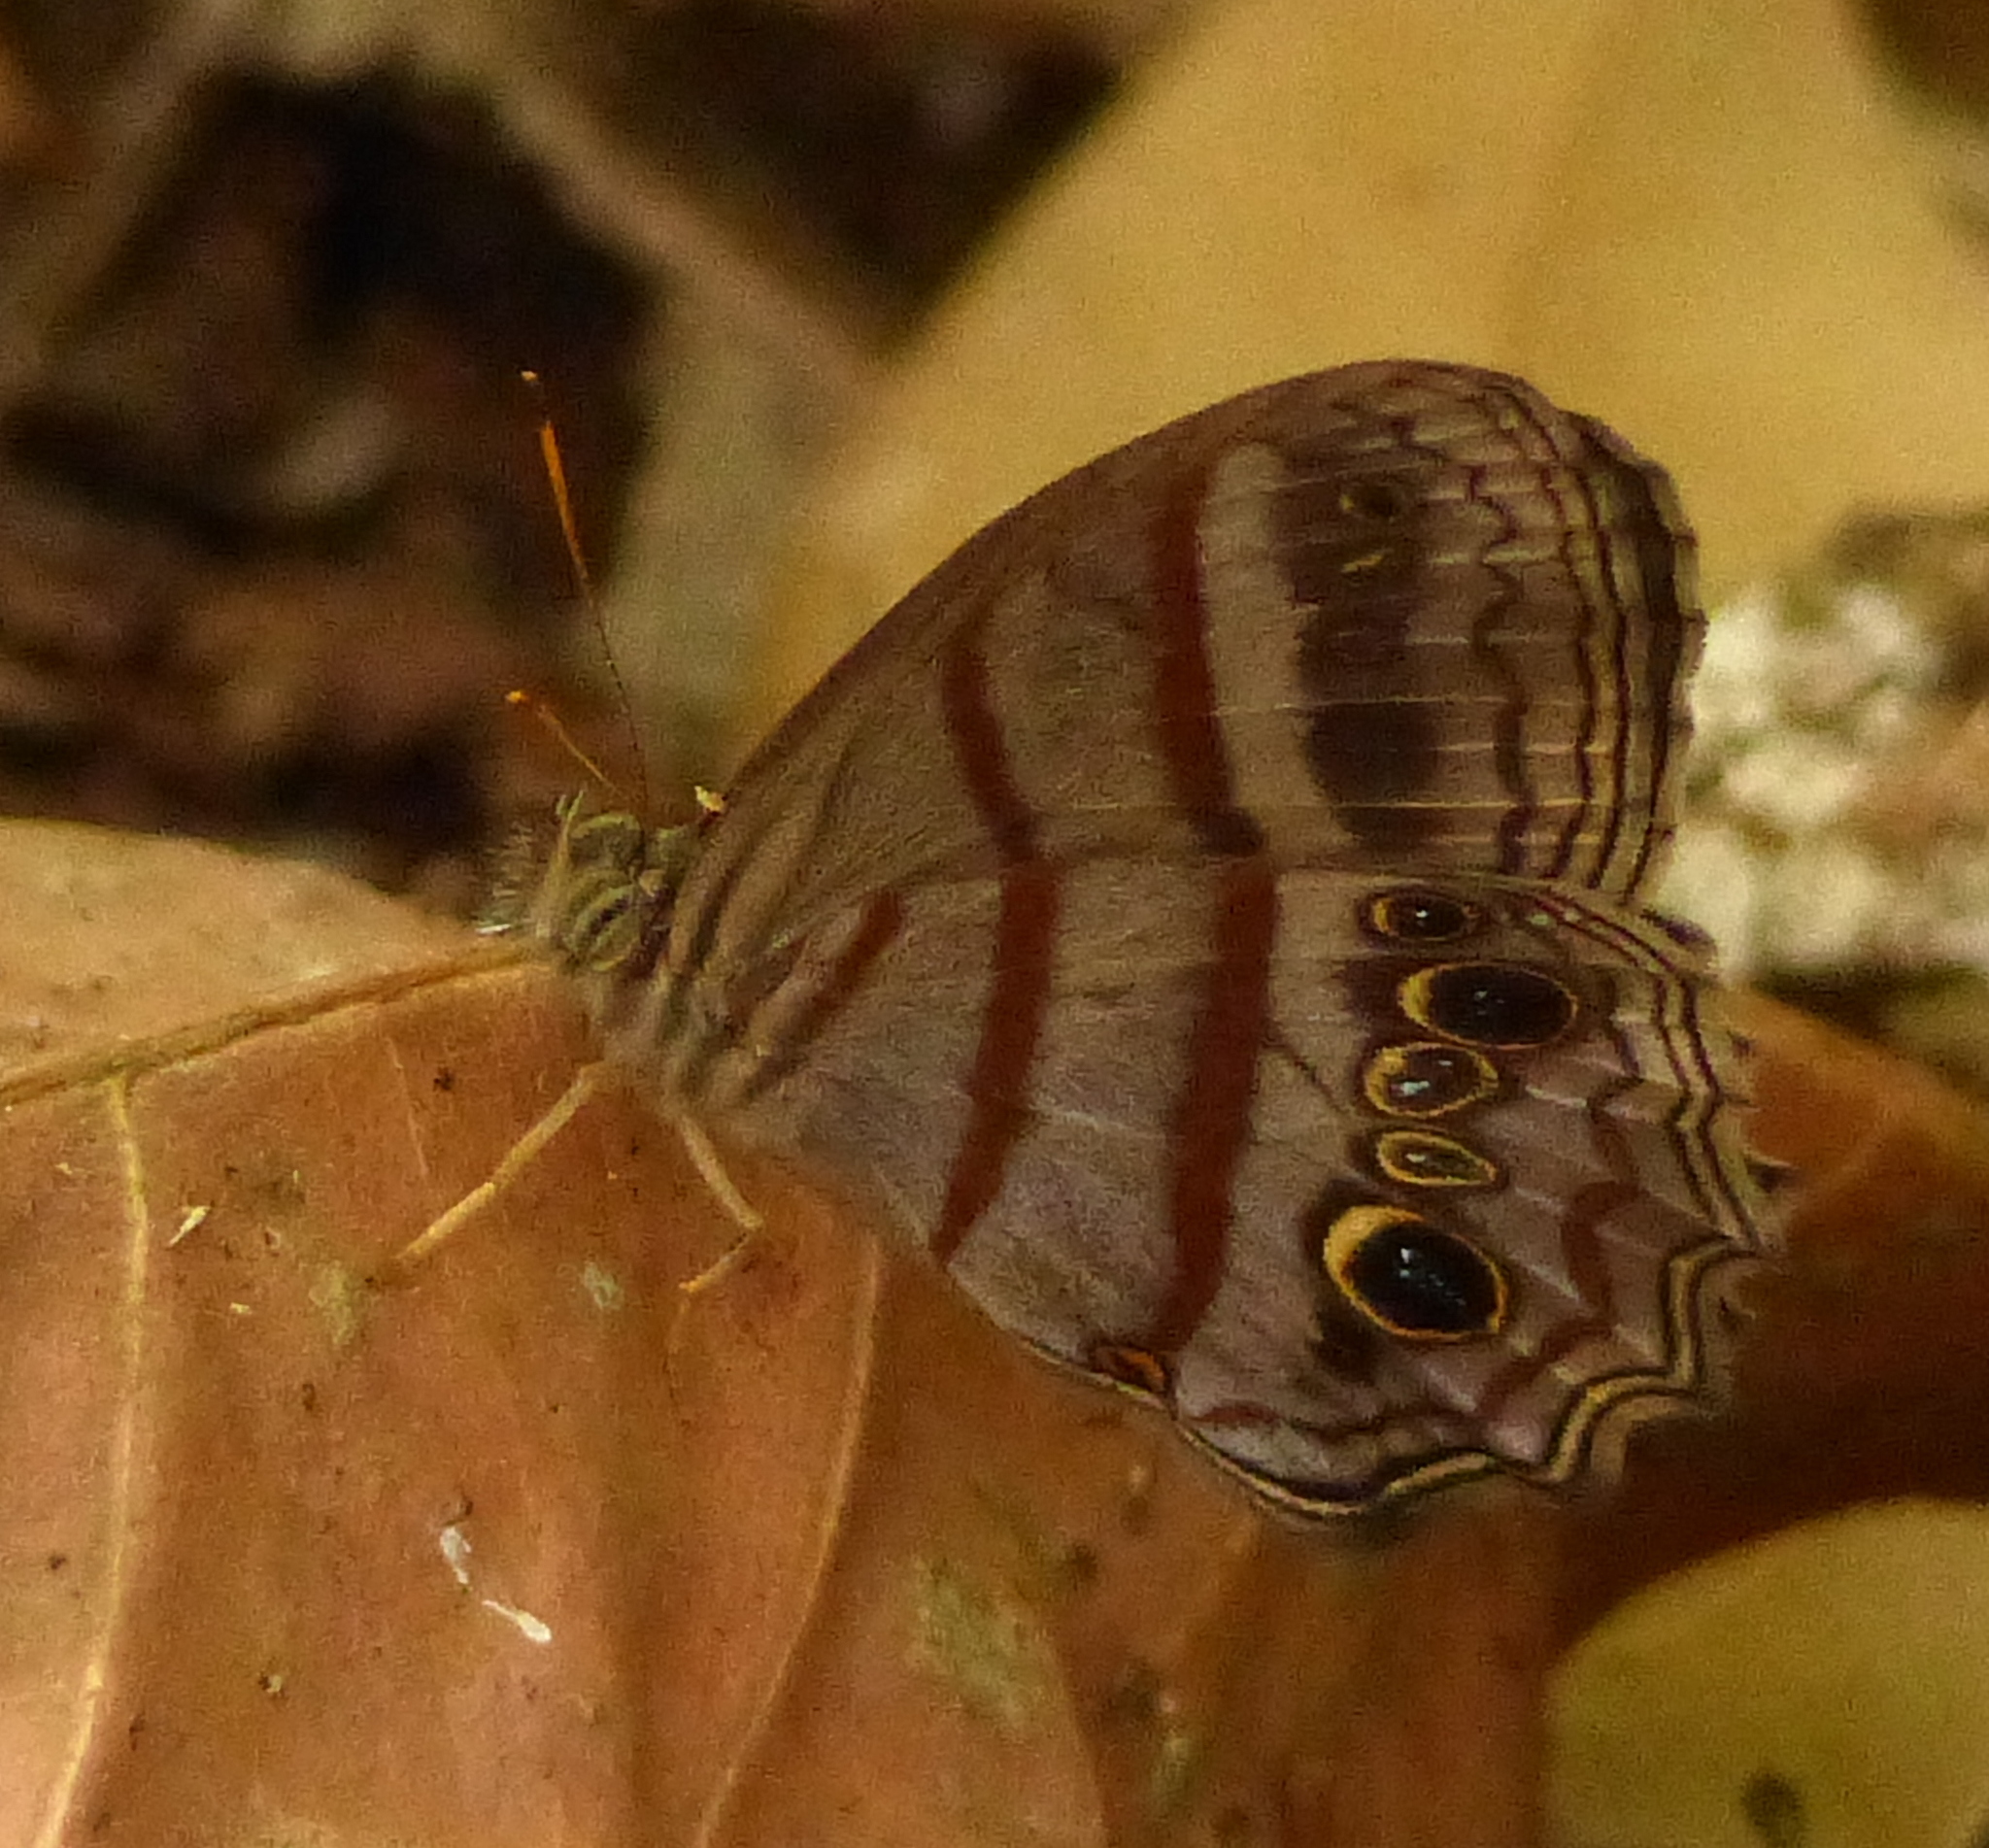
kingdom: Animalia
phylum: Arthropoda
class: Insecta
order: Lepidoptera
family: Nymphalidae
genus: Magneuptychia
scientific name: Magneuptychia libye
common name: Blue-gray satyr
